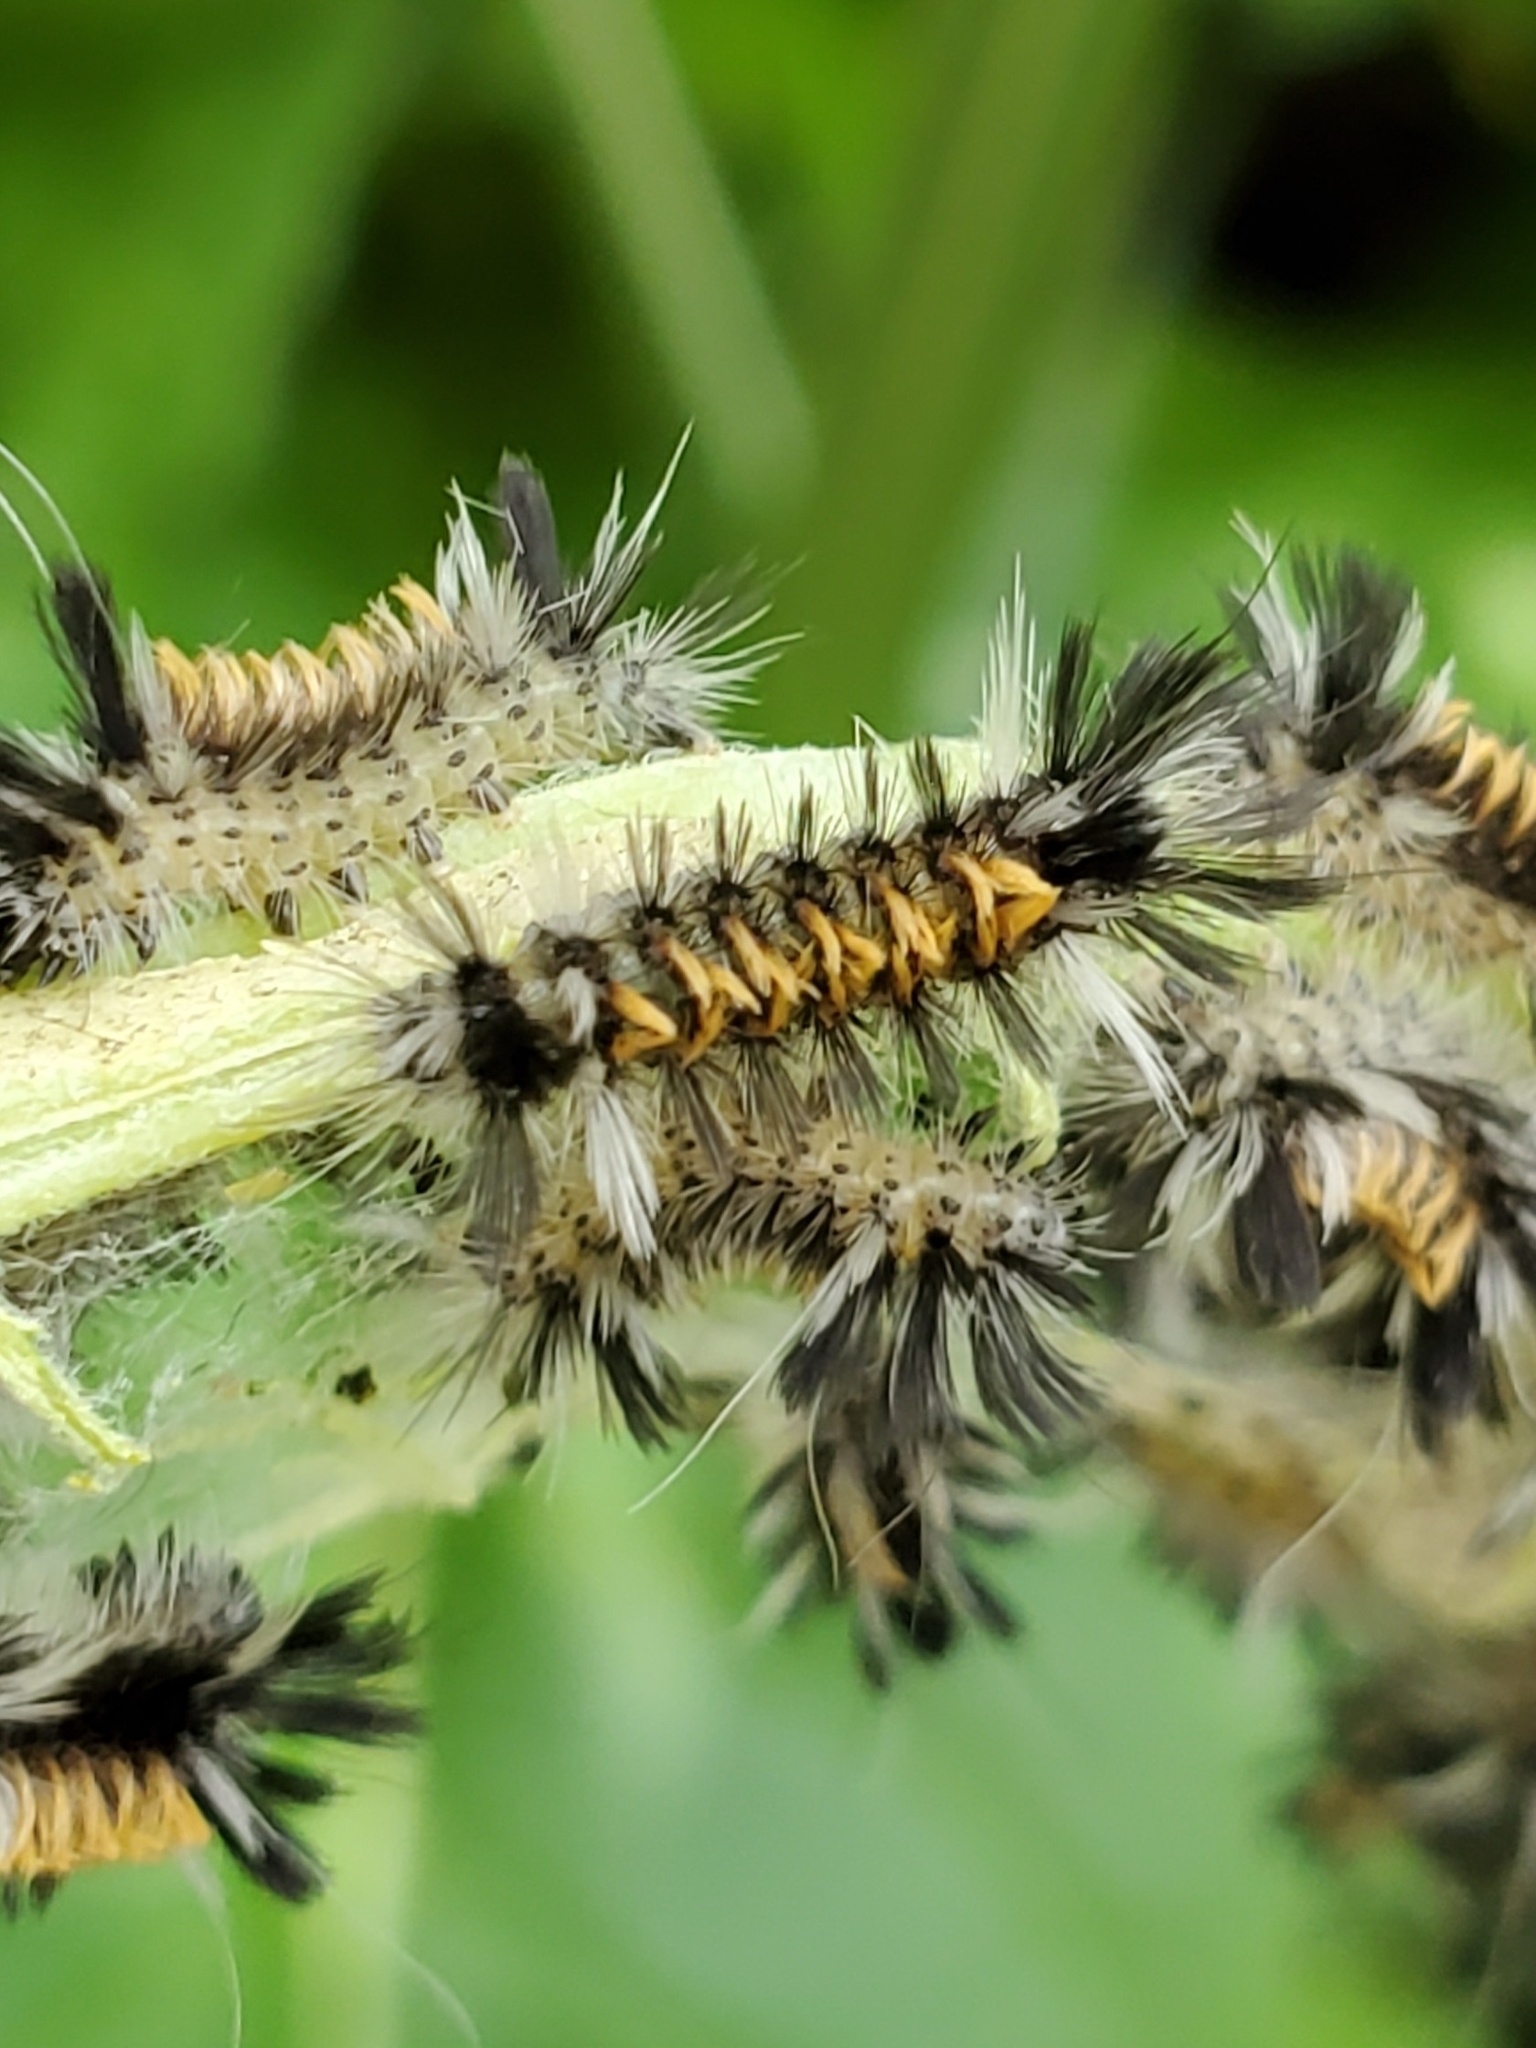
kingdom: Animalia
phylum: Arthropoda
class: Insecta
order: Lepidoptera
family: Erebidae
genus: Euchaetes
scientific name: Euchaetes egle
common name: Milkweed tussock moth
